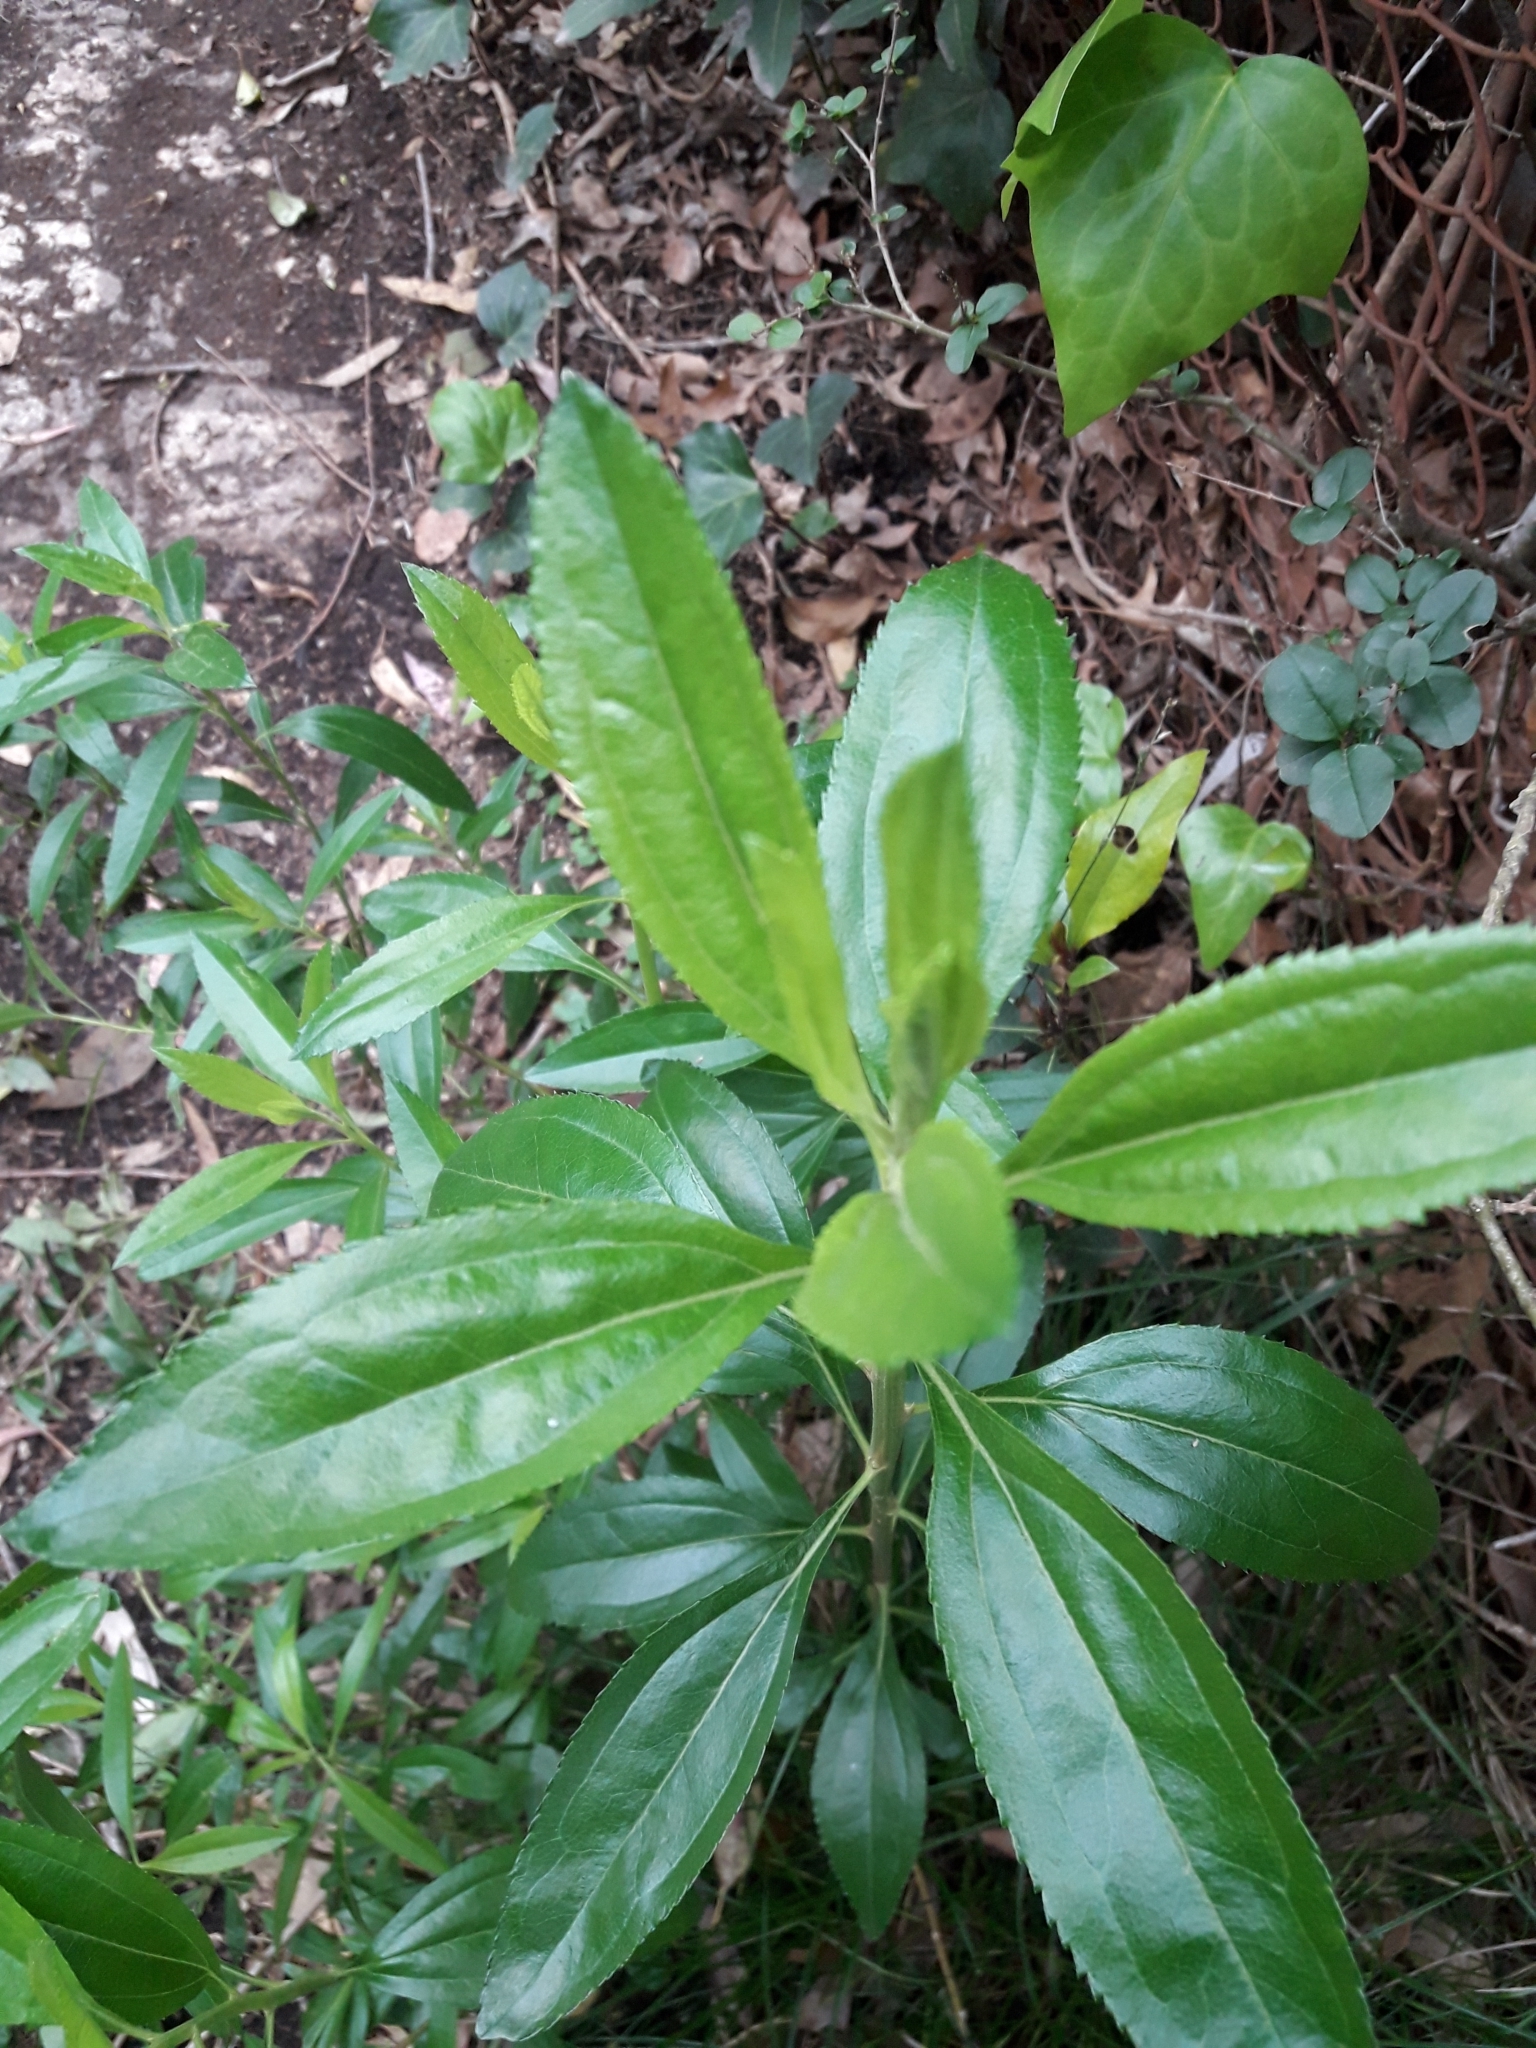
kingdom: Plantae
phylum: Tracheophyta
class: Magnoliopsida
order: Asterales
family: Asteraceae
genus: Baccharis
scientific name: Baccharis punctulata
